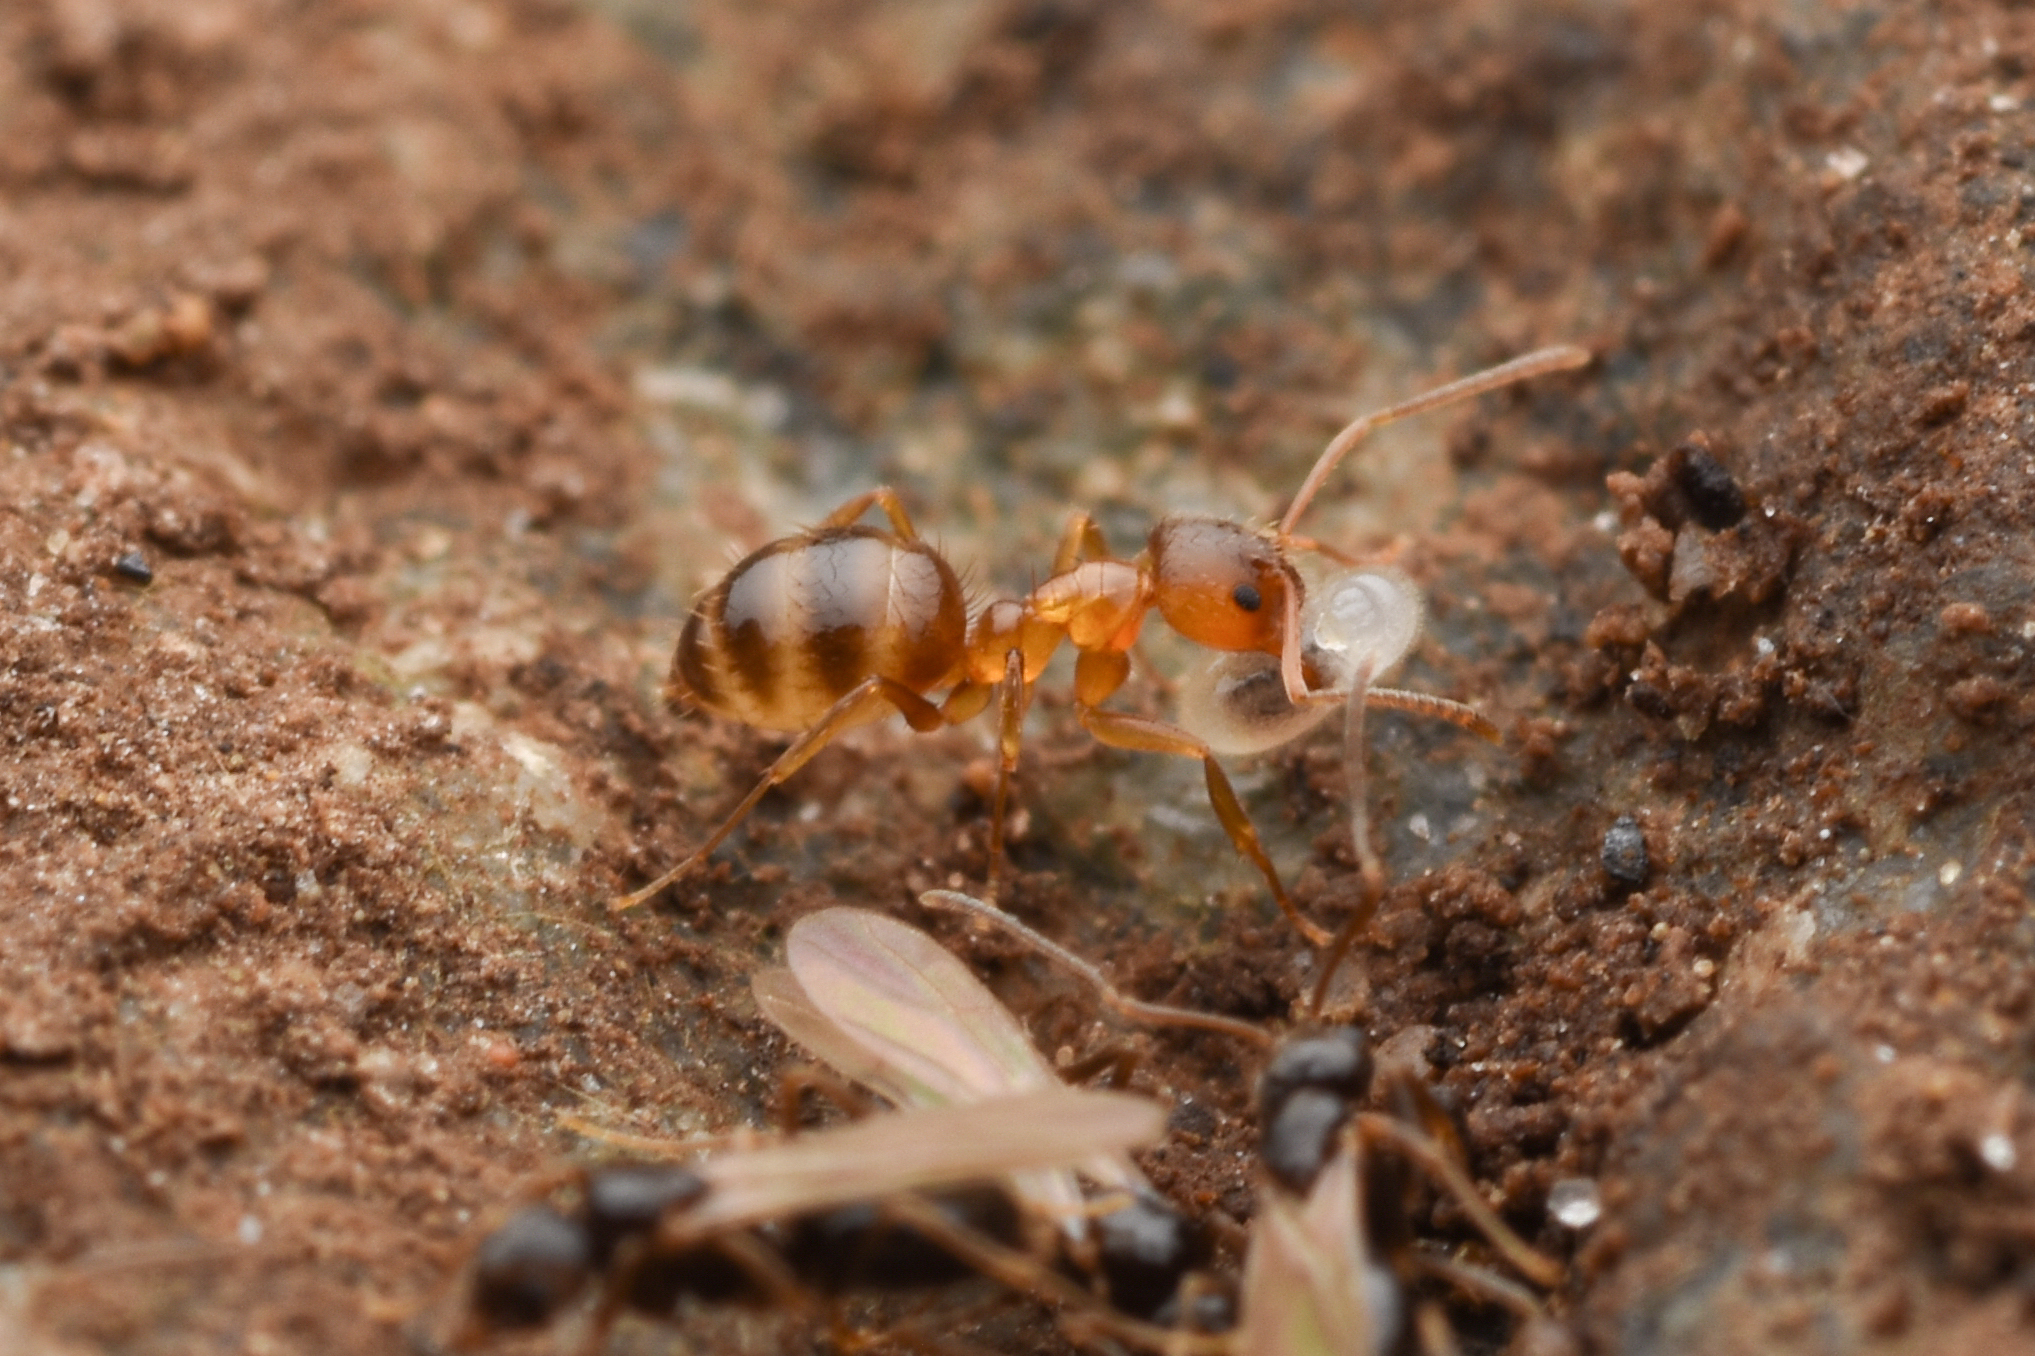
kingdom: Animalia
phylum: Arthropoda
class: Insecta
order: Hymenoptera
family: Formicidae
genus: Paratrechina
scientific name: Paratrechina flavipes
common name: Eastern asian formicine ant
